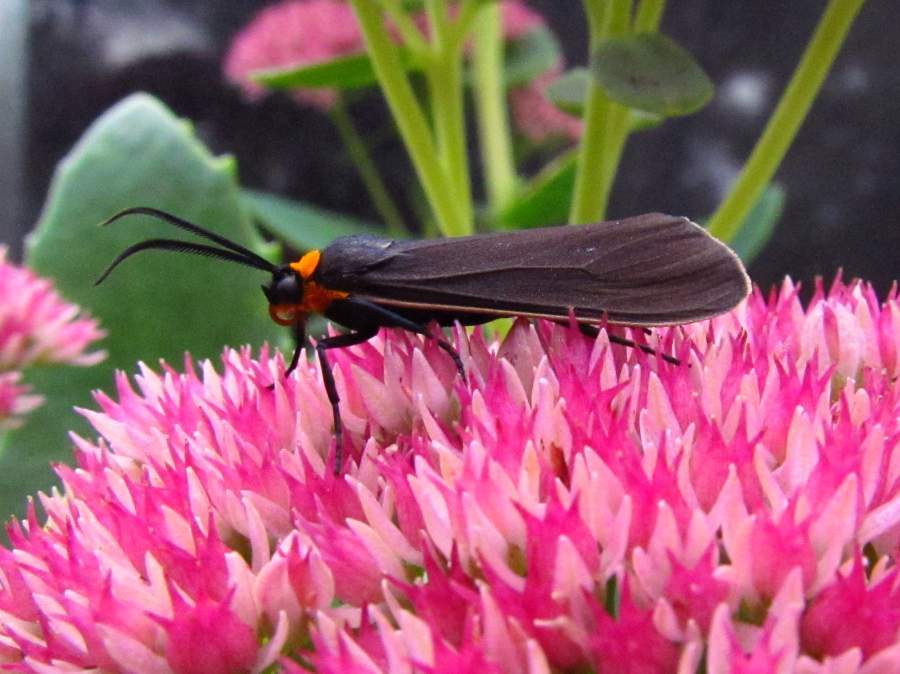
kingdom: Animalia
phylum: Arthropoda
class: Insecta
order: Lepidoptera
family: Erebidae
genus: Cisseps
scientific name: Cisseps fulvicollis
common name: Yellow-collared scape moth
